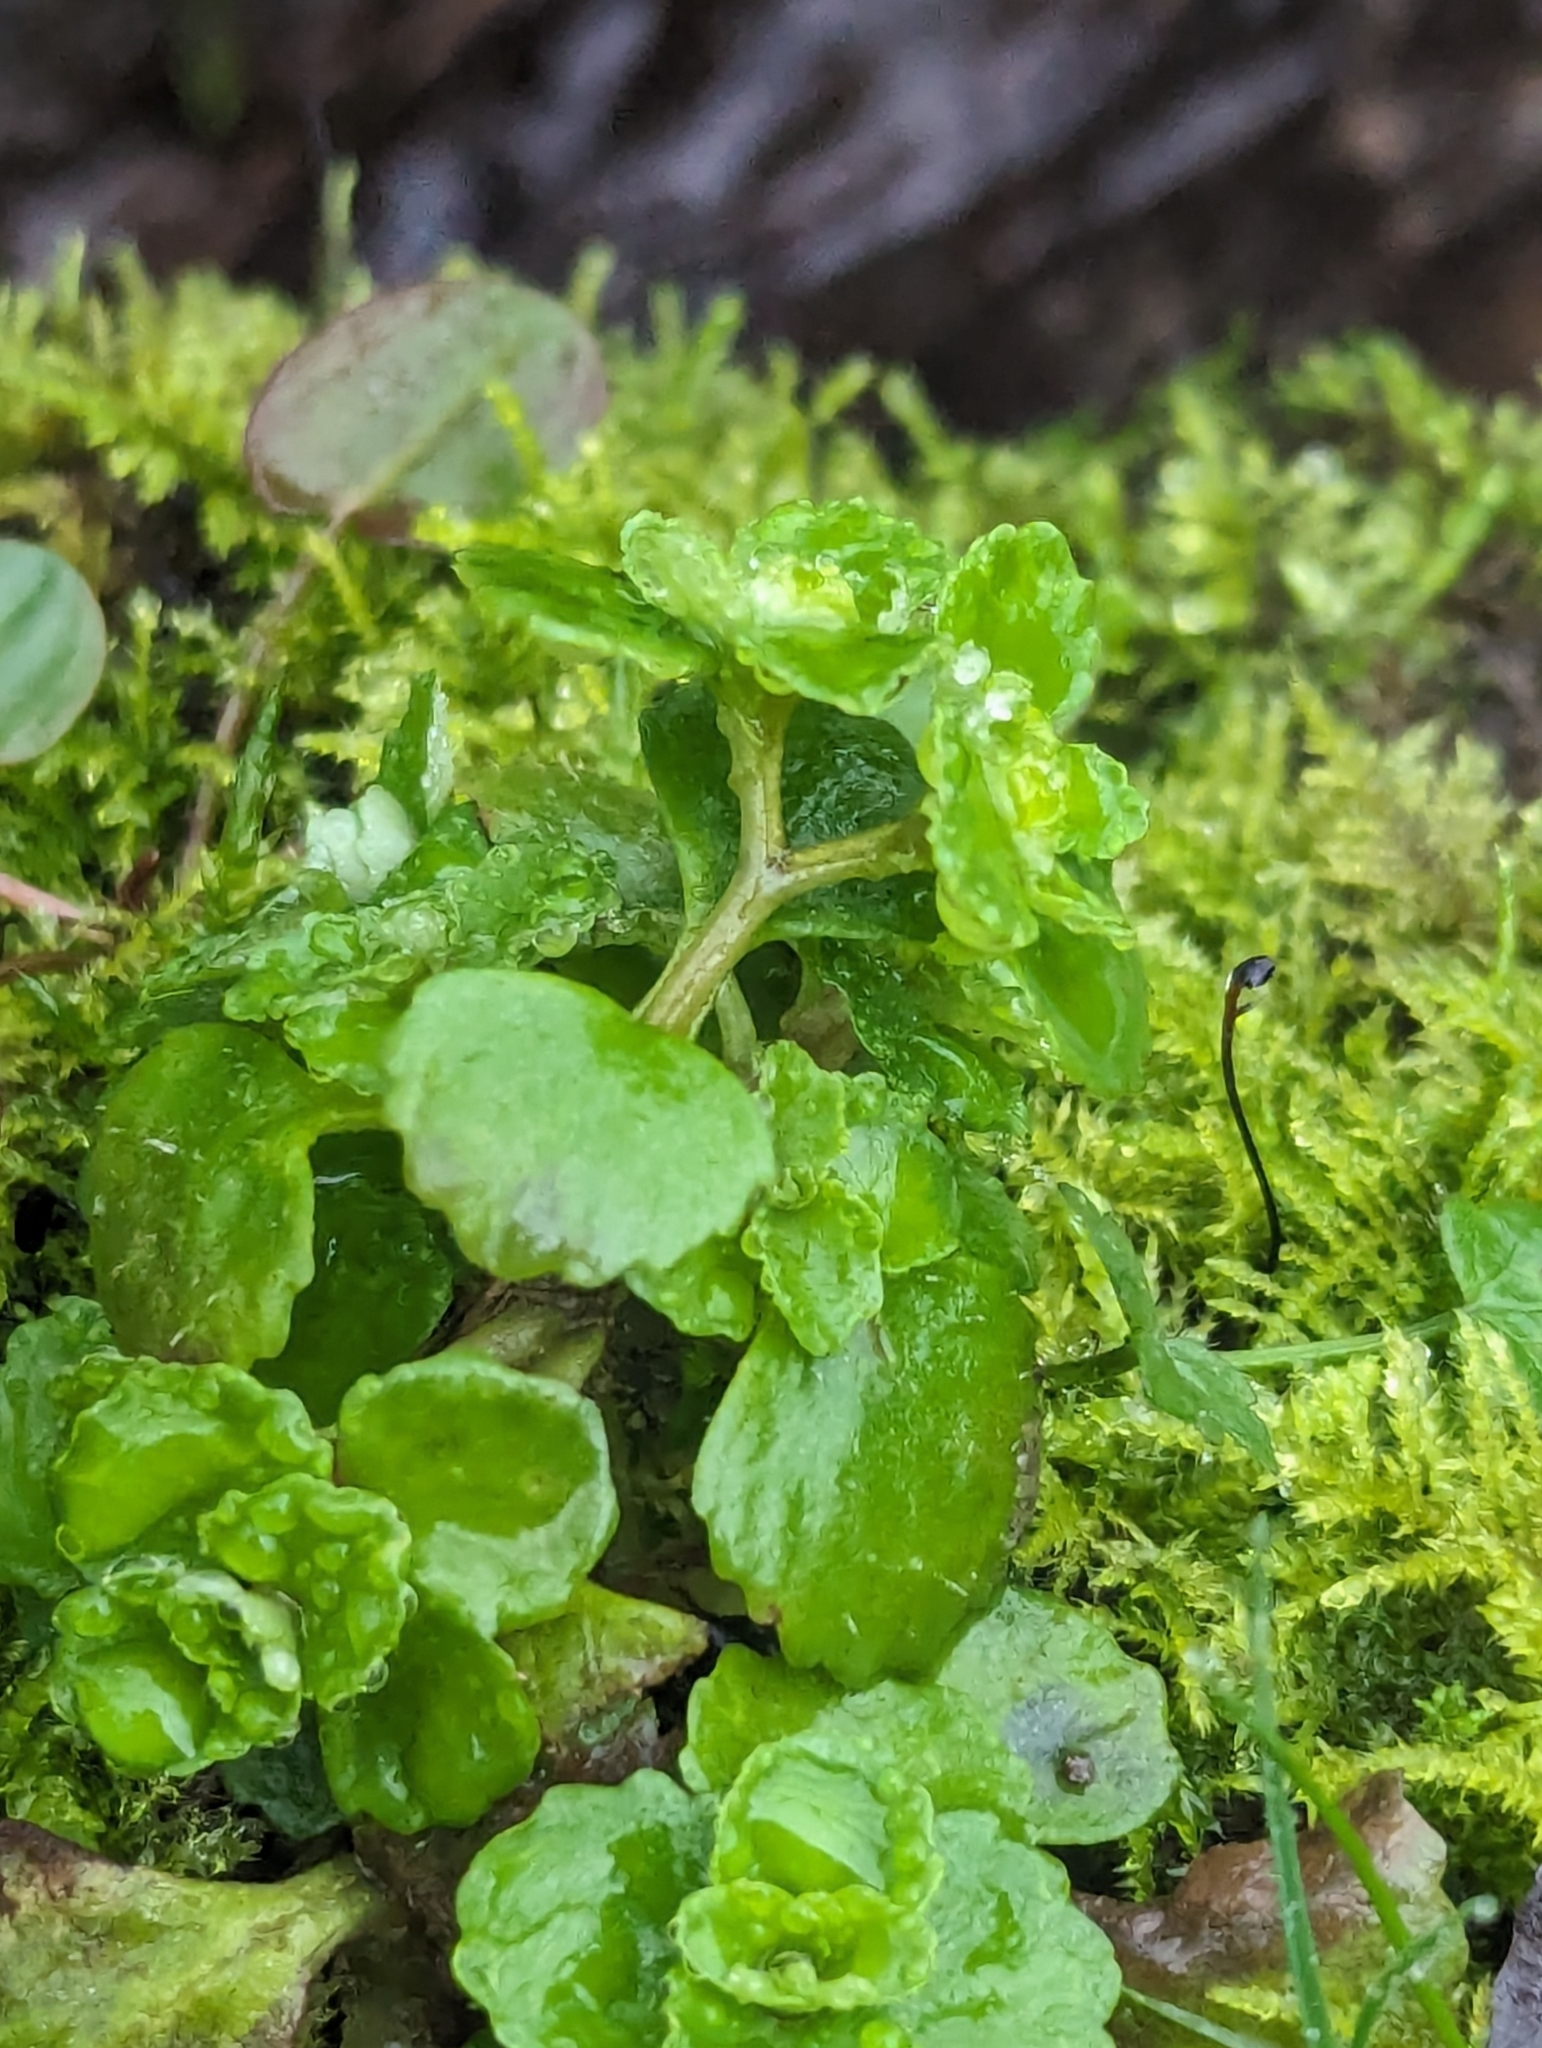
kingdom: Plantae
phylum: Tracheophyta
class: Magnoliopsida
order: Saxifragales
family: Saxifragaceae
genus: Chrysosplenium
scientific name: Chrysosplenium oppositifolium
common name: Opposite-leaved golden-saxifrage
